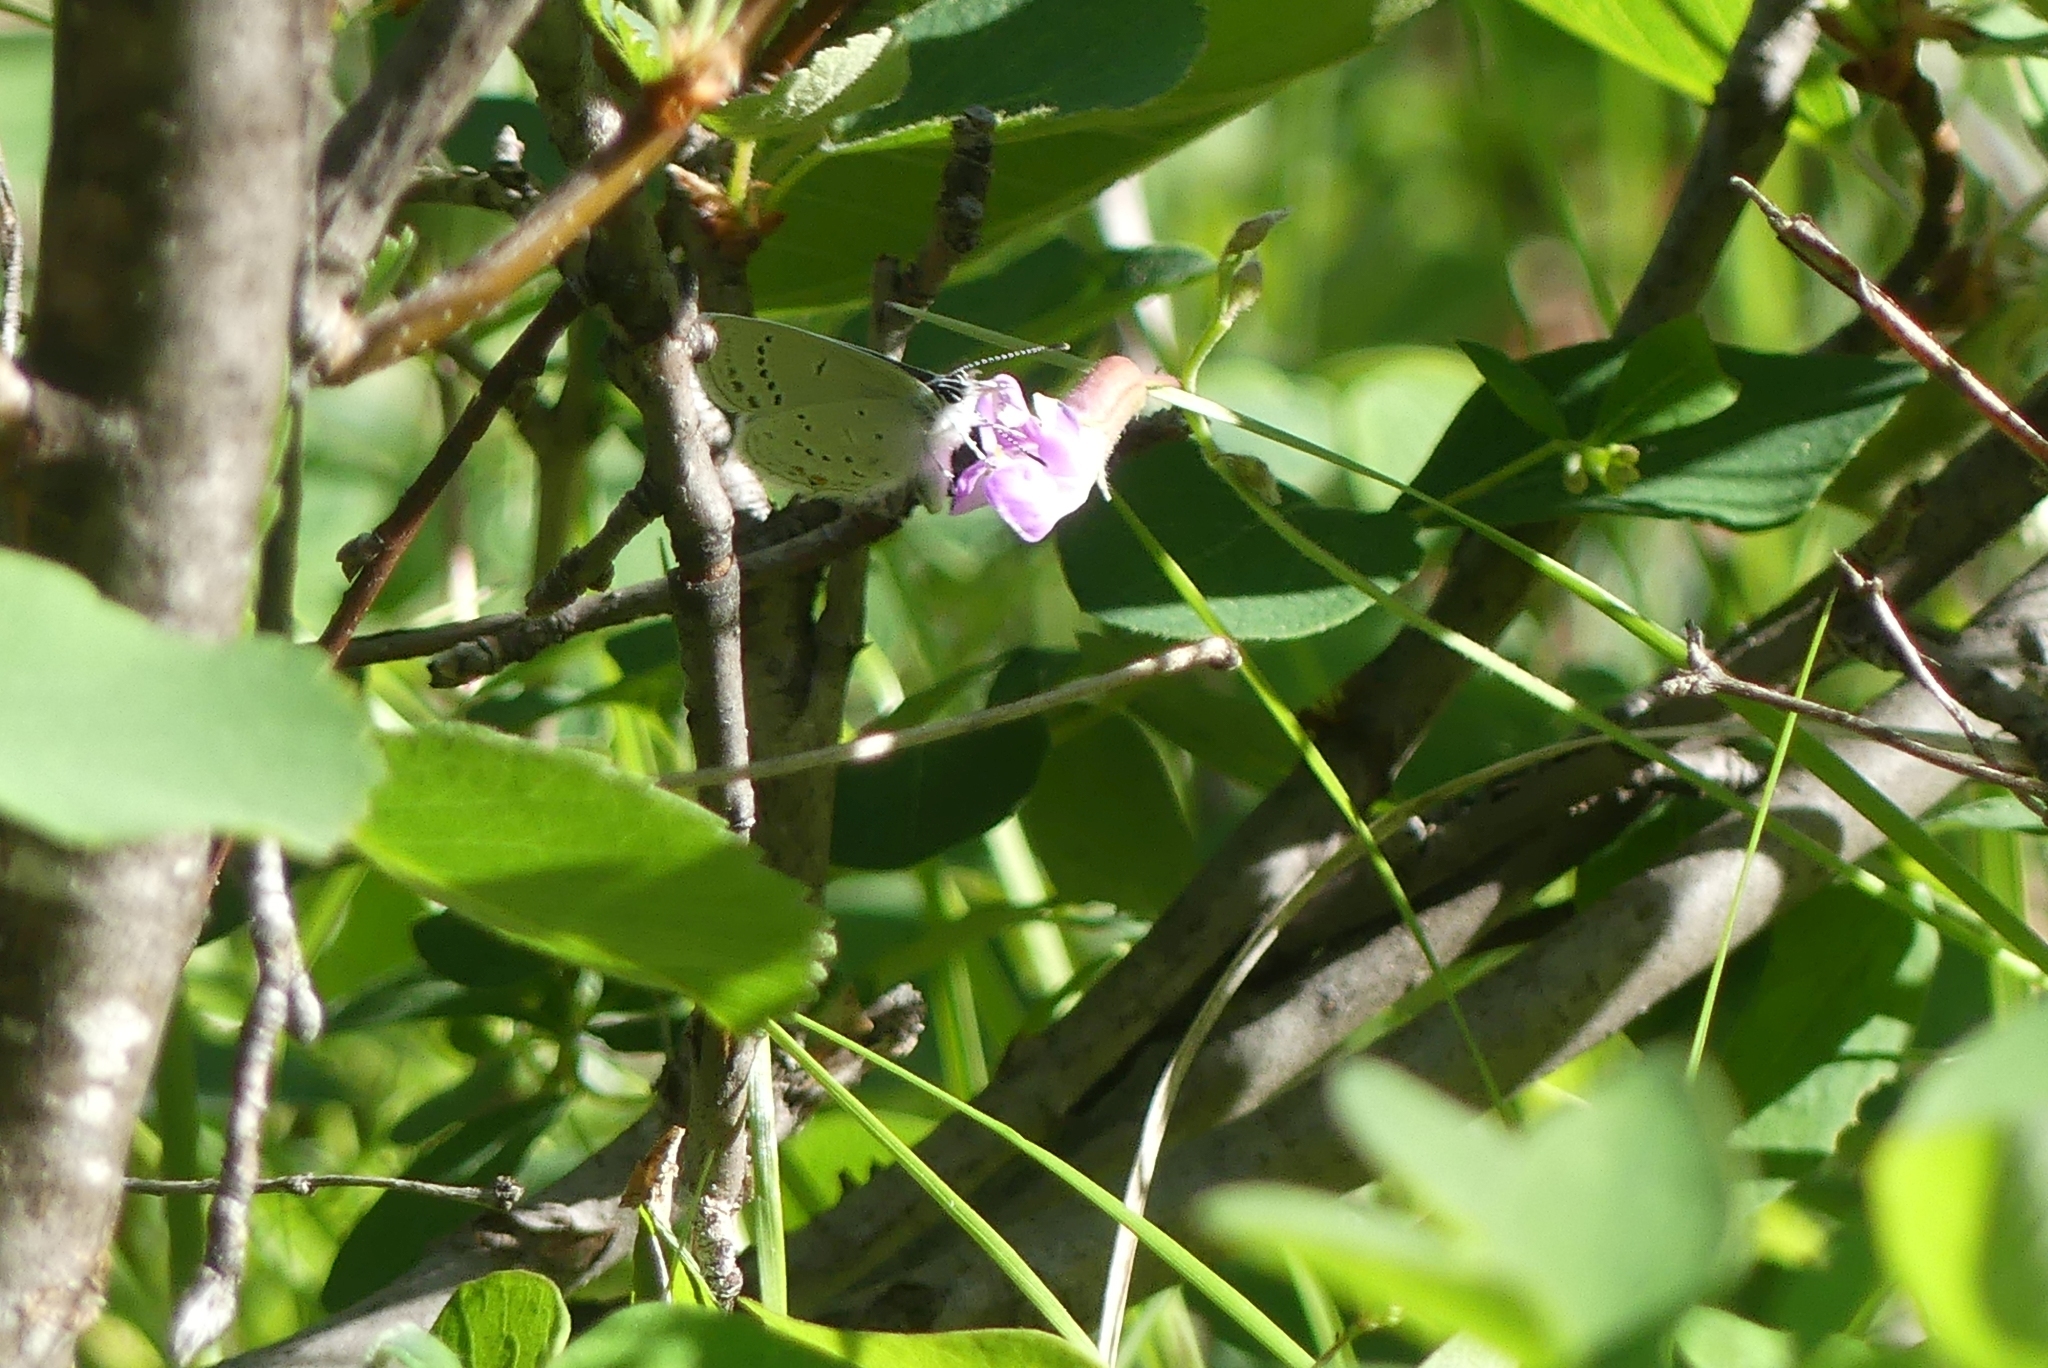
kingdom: Animalia
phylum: Arthropoda
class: Insecta
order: Lepidoptera
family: Lycaenidae
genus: Elkalyce
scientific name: Elkalyce amyntula
